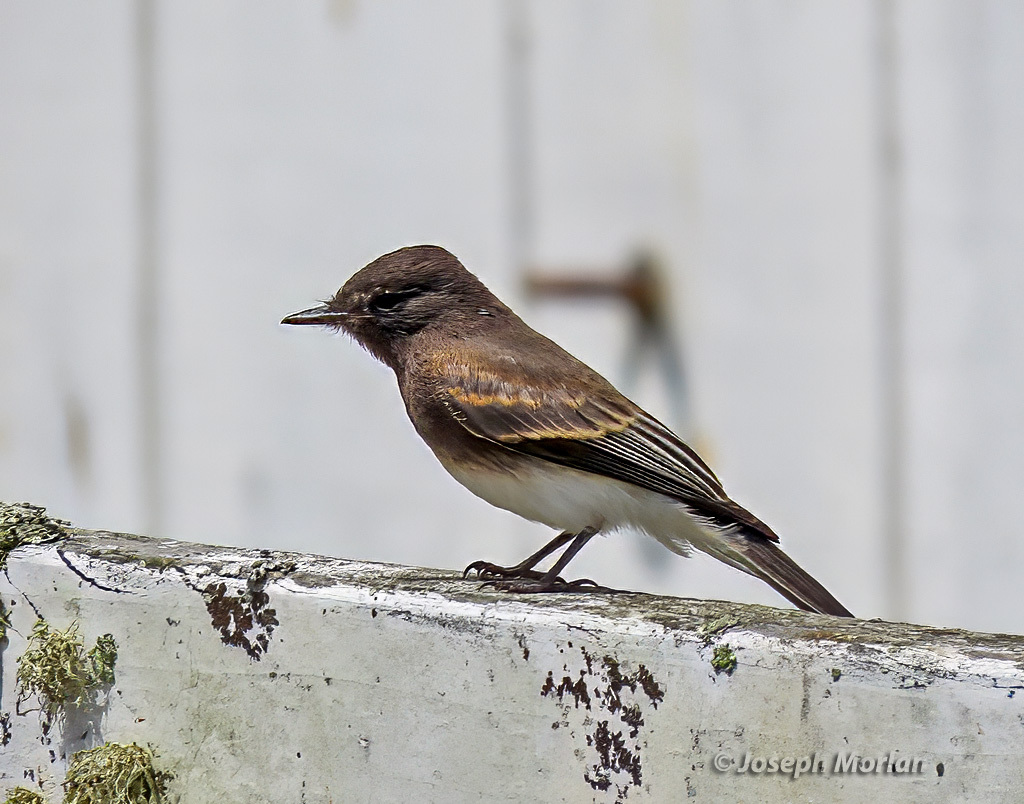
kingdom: Animalia
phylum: Chordata
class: Aves
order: Passeriformes
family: Tyrannidae
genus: Sayornis
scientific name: Sayornis nigricans
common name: Black phoebe
